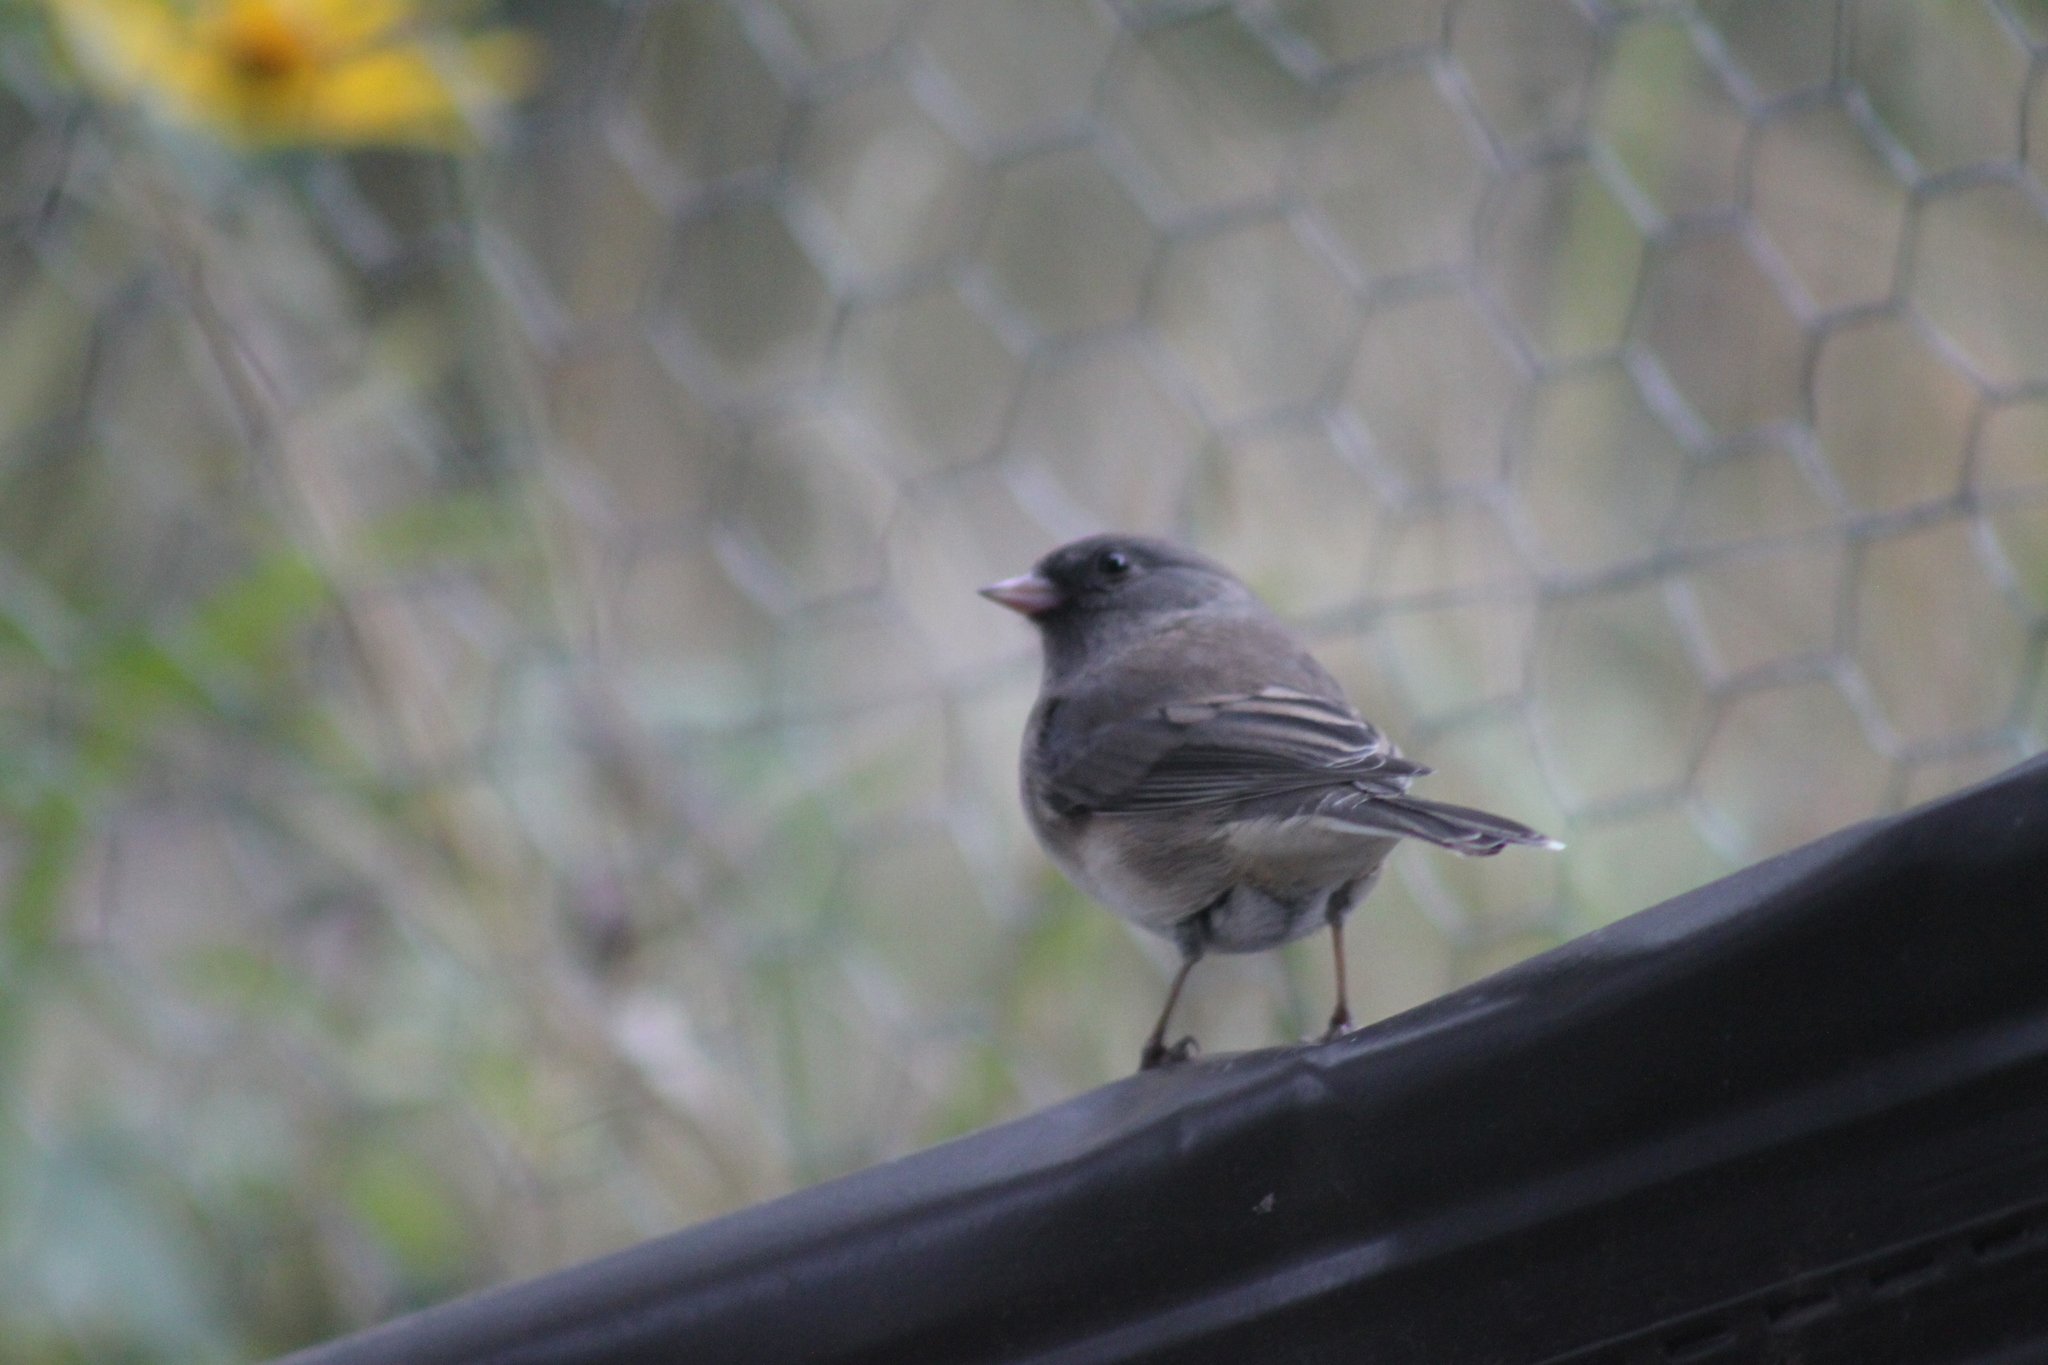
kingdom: Animalia
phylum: Chordata
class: Aves
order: Passeriformes
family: Passerellidae
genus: Junco
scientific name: Junco hyemalis
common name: Dark-eyed junco
